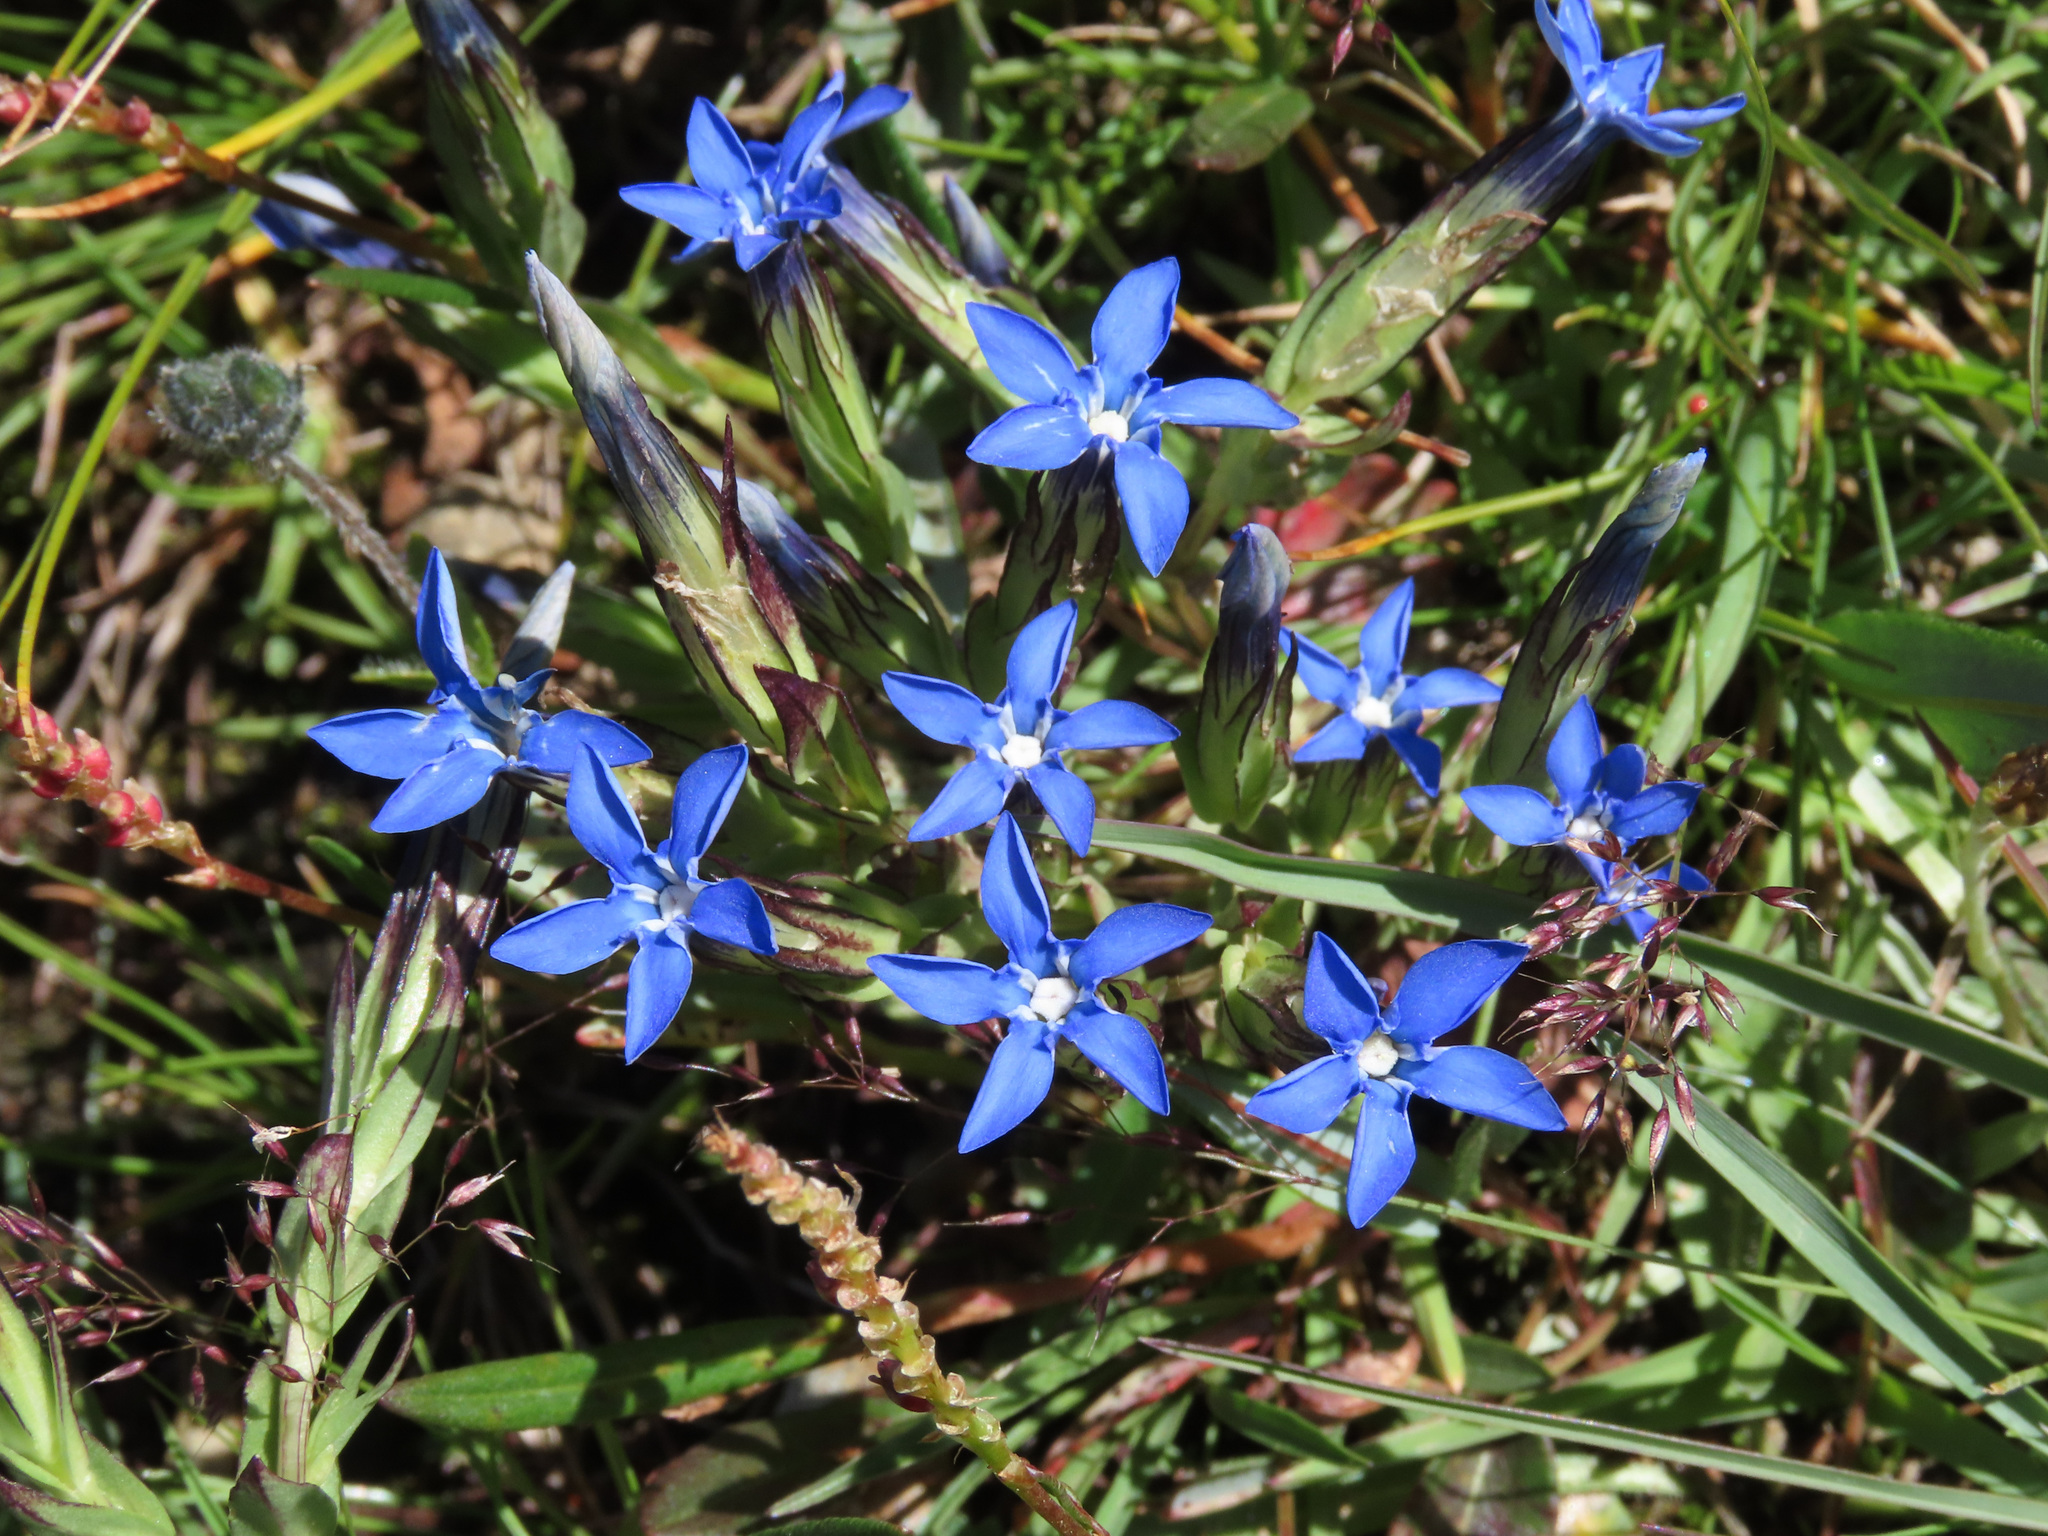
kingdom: Plantae
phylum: Tracheophyta
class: Magnoliopsida
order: Gentianales
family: Gentianaceae
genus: Gentiana
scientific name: Gentiana nivalis
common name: Alpine gentian
